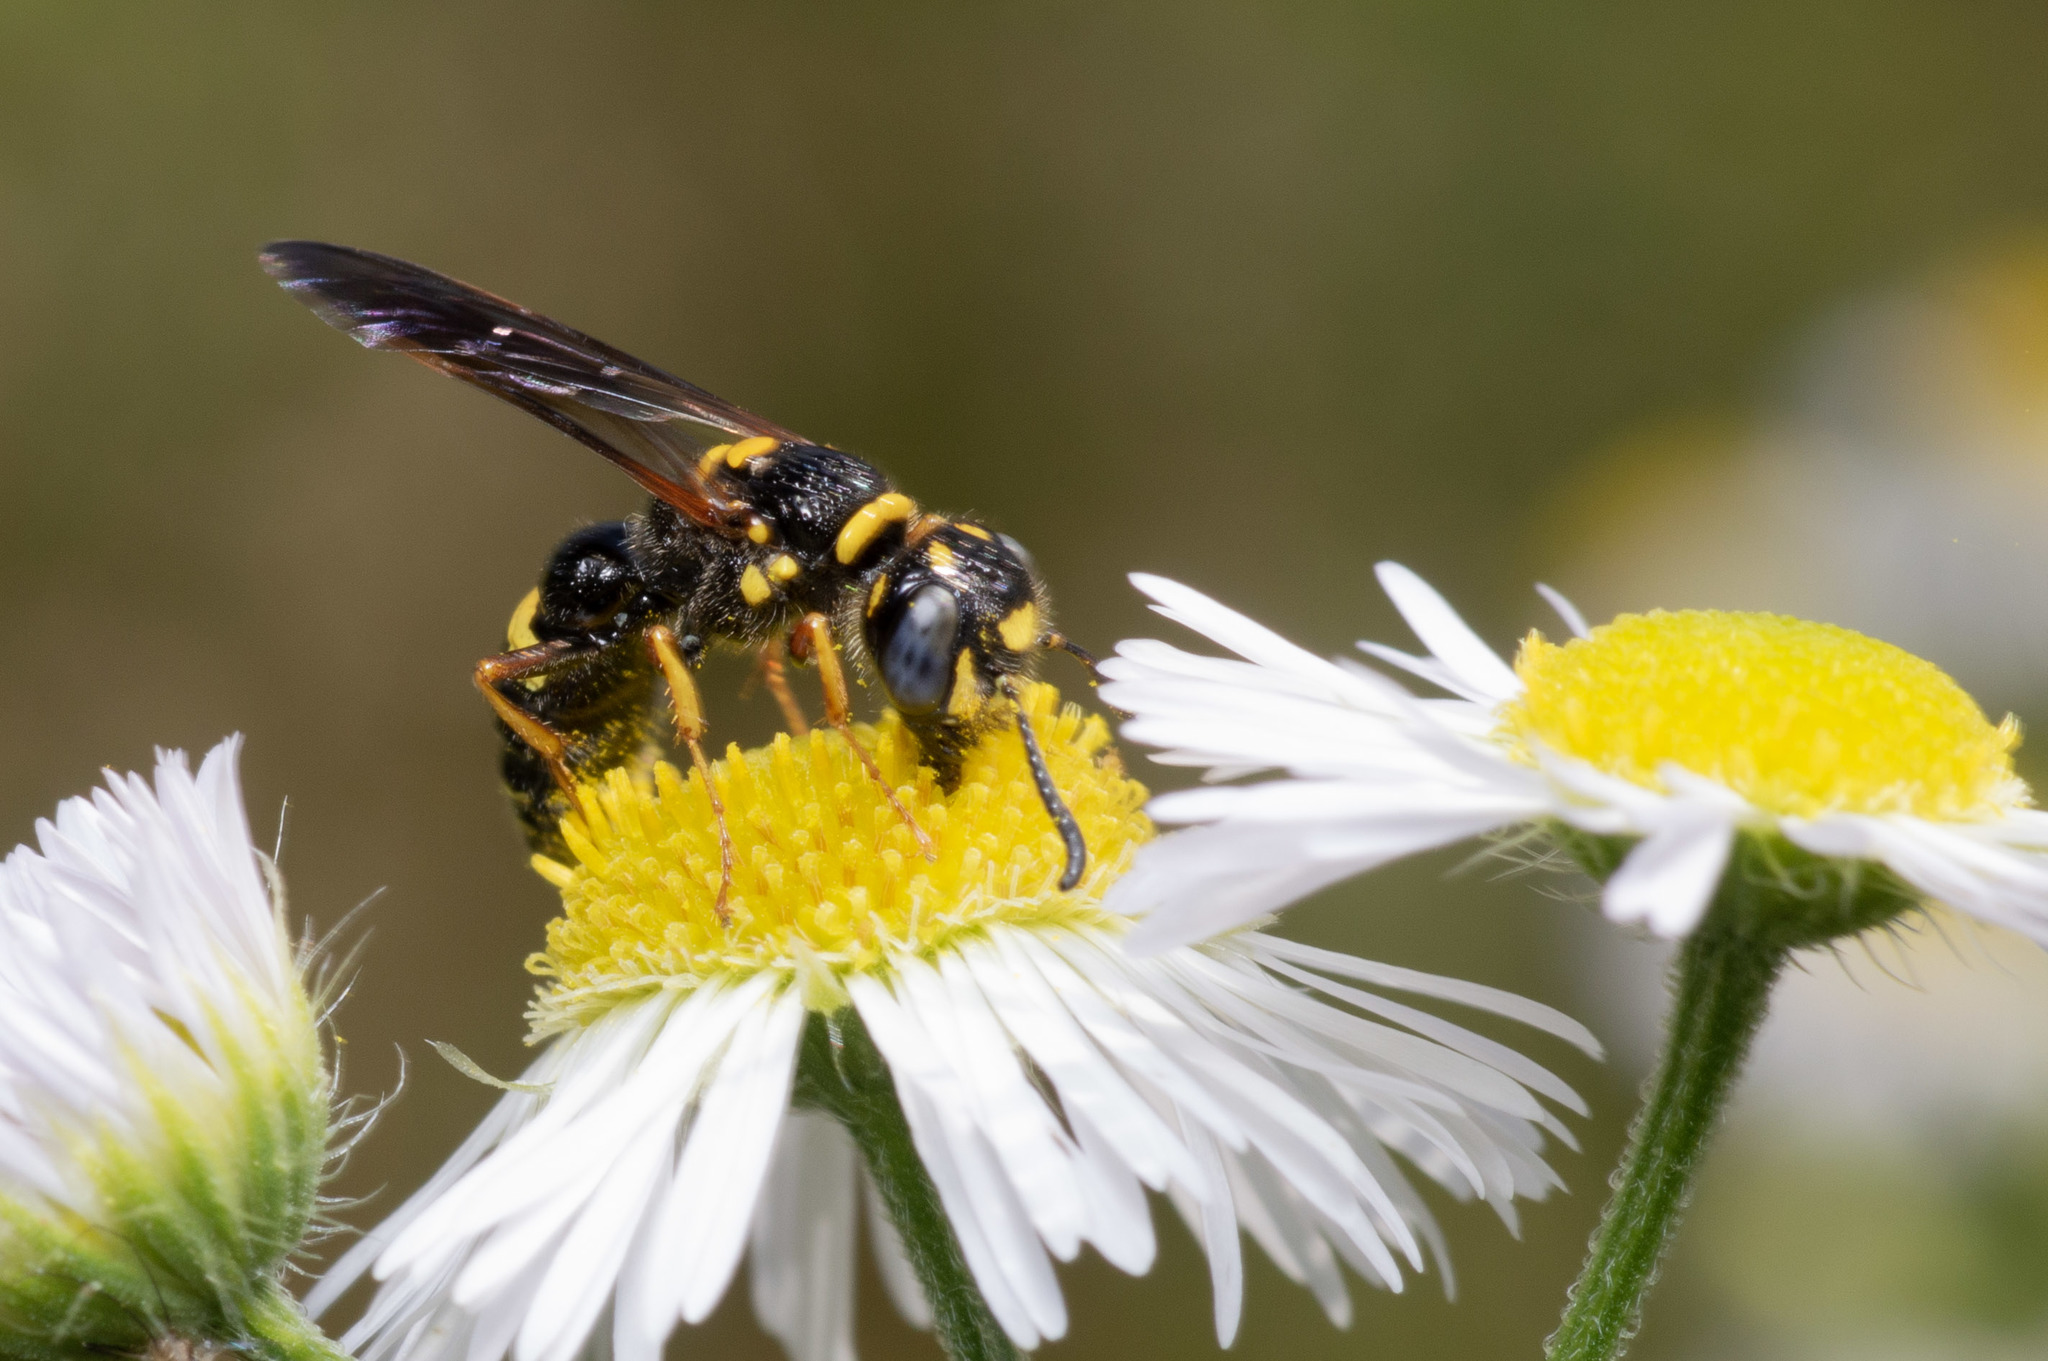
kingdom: Animalia
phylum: Arthropoda
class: Insecta
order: Hymenoptera
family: Crabronidae
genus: Philanthus
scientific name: Philanthus gibbosus
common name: Humped beewolf
